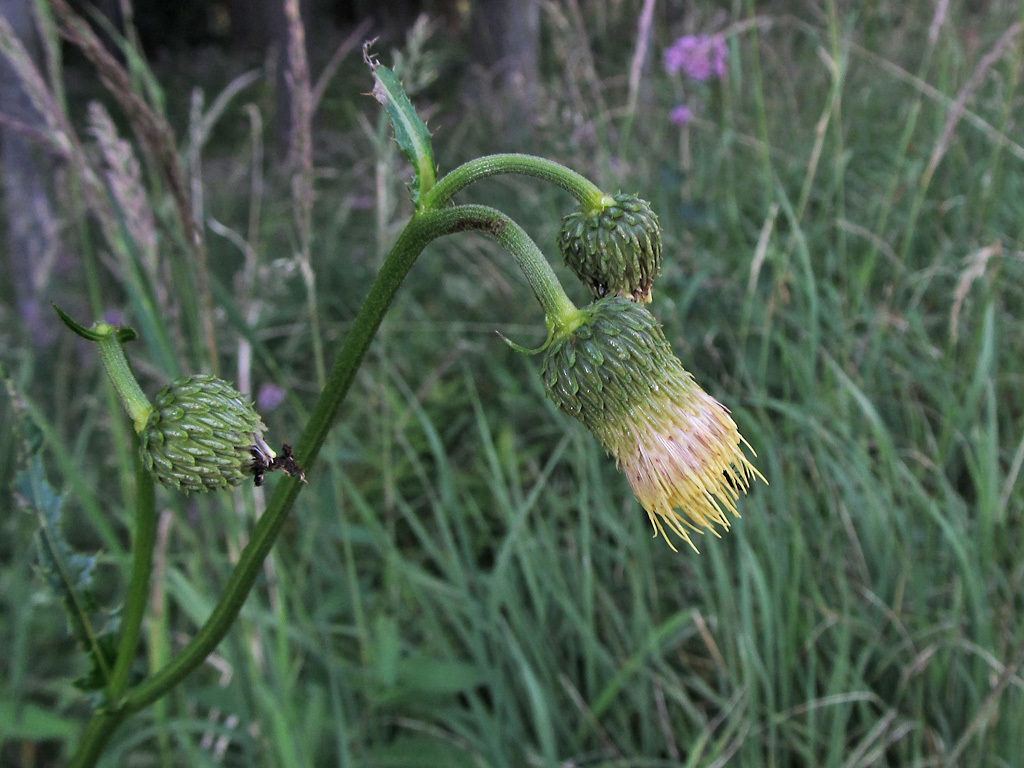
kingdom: Plantae
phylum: Tracheophyta
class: Magnoliopsida
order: Asterales
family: Asteraceae
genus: Cirsium
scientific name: Cirsium erisithales
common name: Yellow thistle
